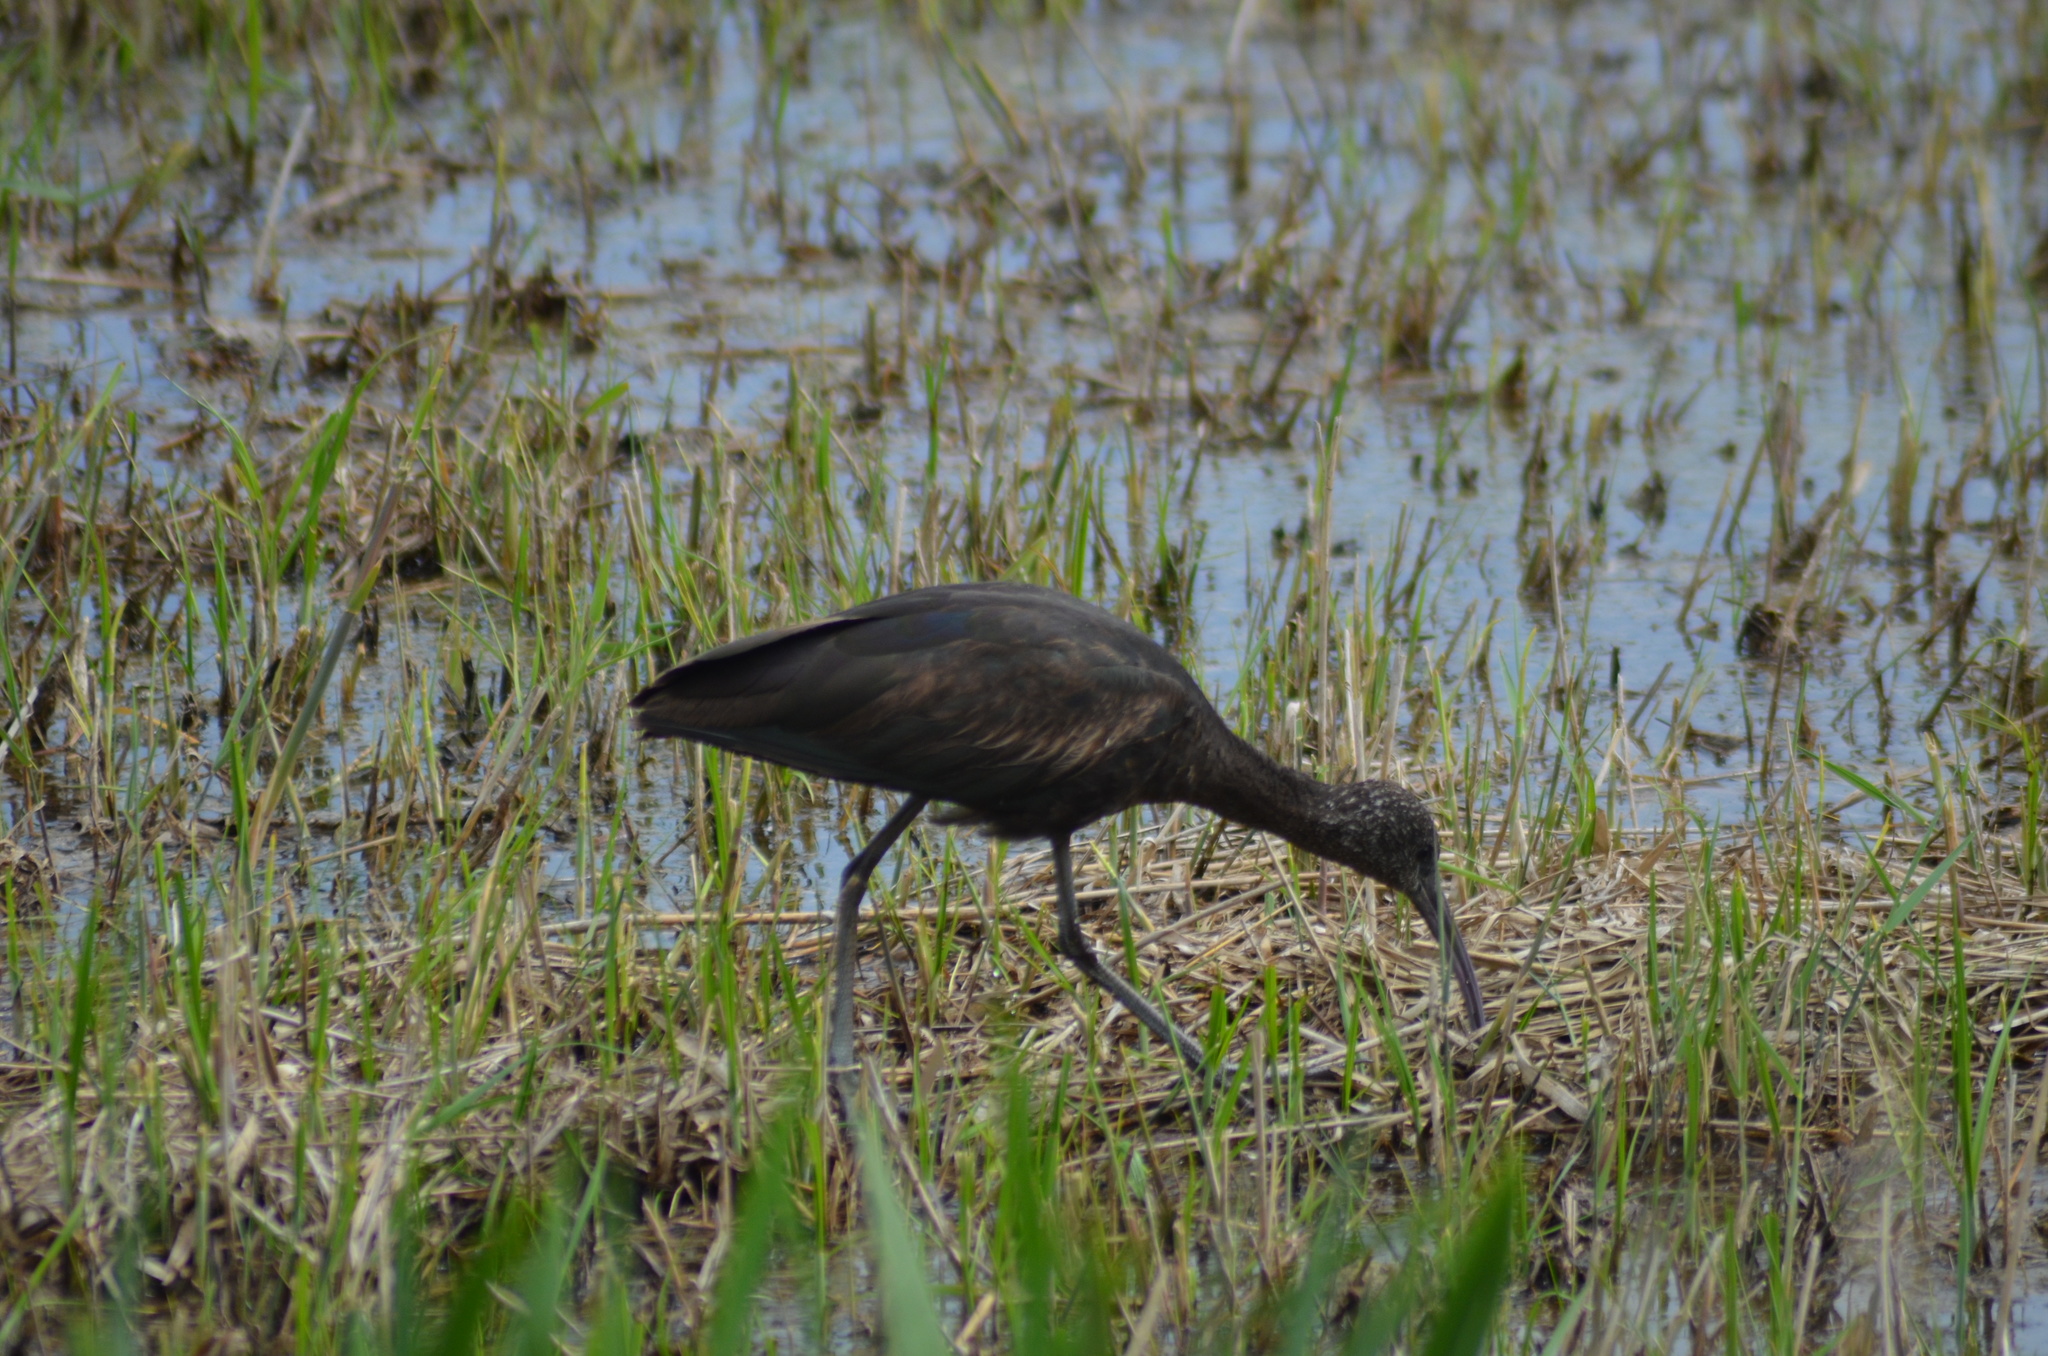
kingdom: Animalia
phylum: Chordata
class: Aves
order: Pelecaniformes
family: Threskiornithidae
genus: Plegadis
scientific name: Plegadis falcinellus
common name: Glossy ibis
